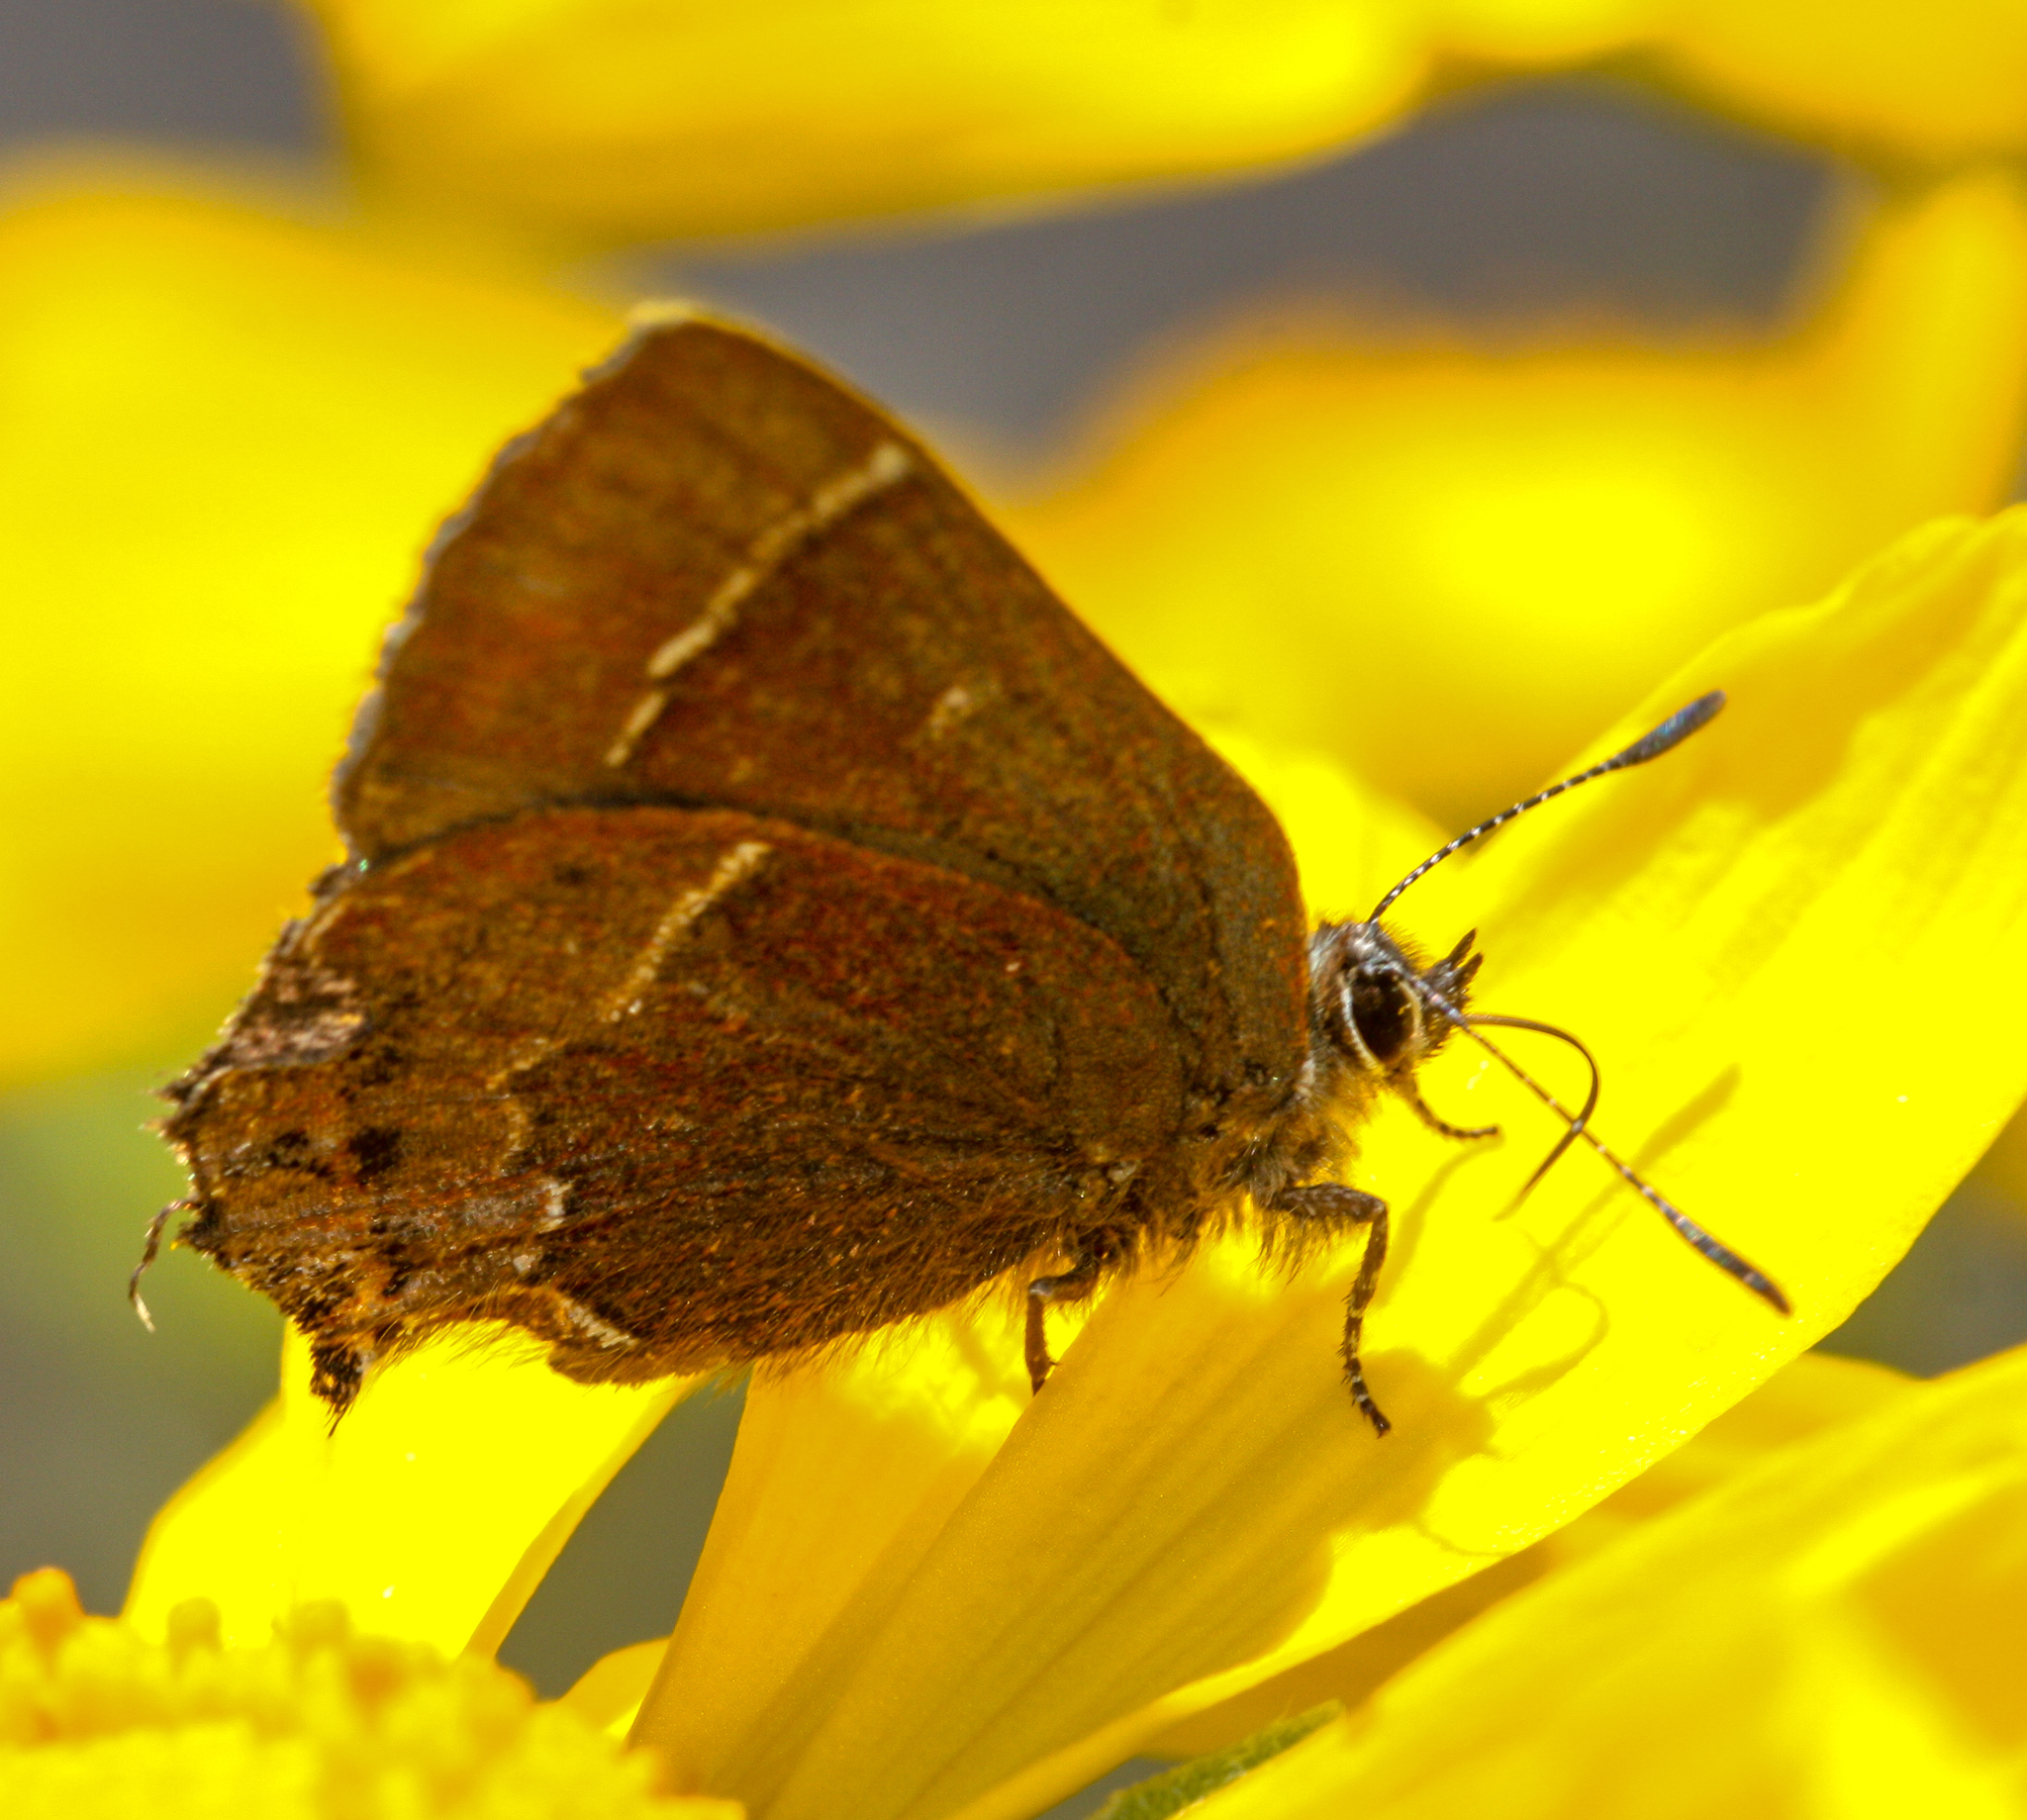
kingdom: Animalia
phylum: Arthropoda
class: Insecta
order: Lepidoptera
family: Lycaenidae
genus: Mitoura
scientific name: Mitoura spinetorum
